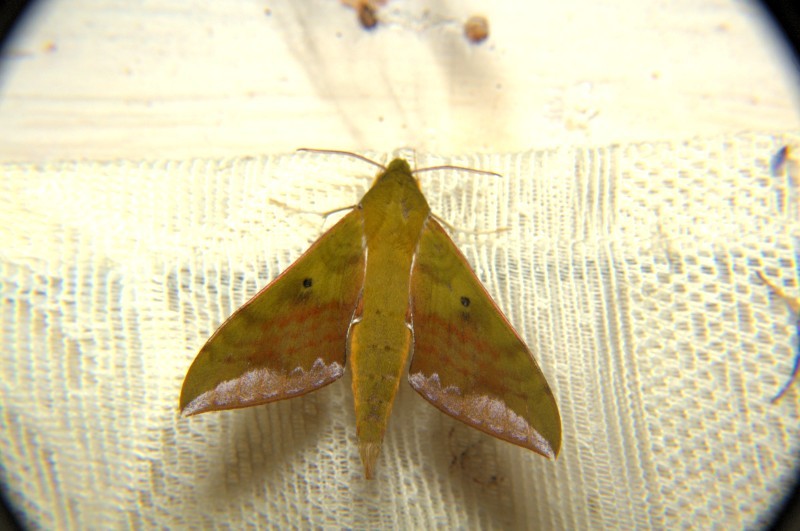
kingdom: Animalia
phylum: Arthropoda
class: Insecta
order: Lepidoptera
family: Sphingidae
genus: Rhagastis
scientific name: Rhagastis olivacea
